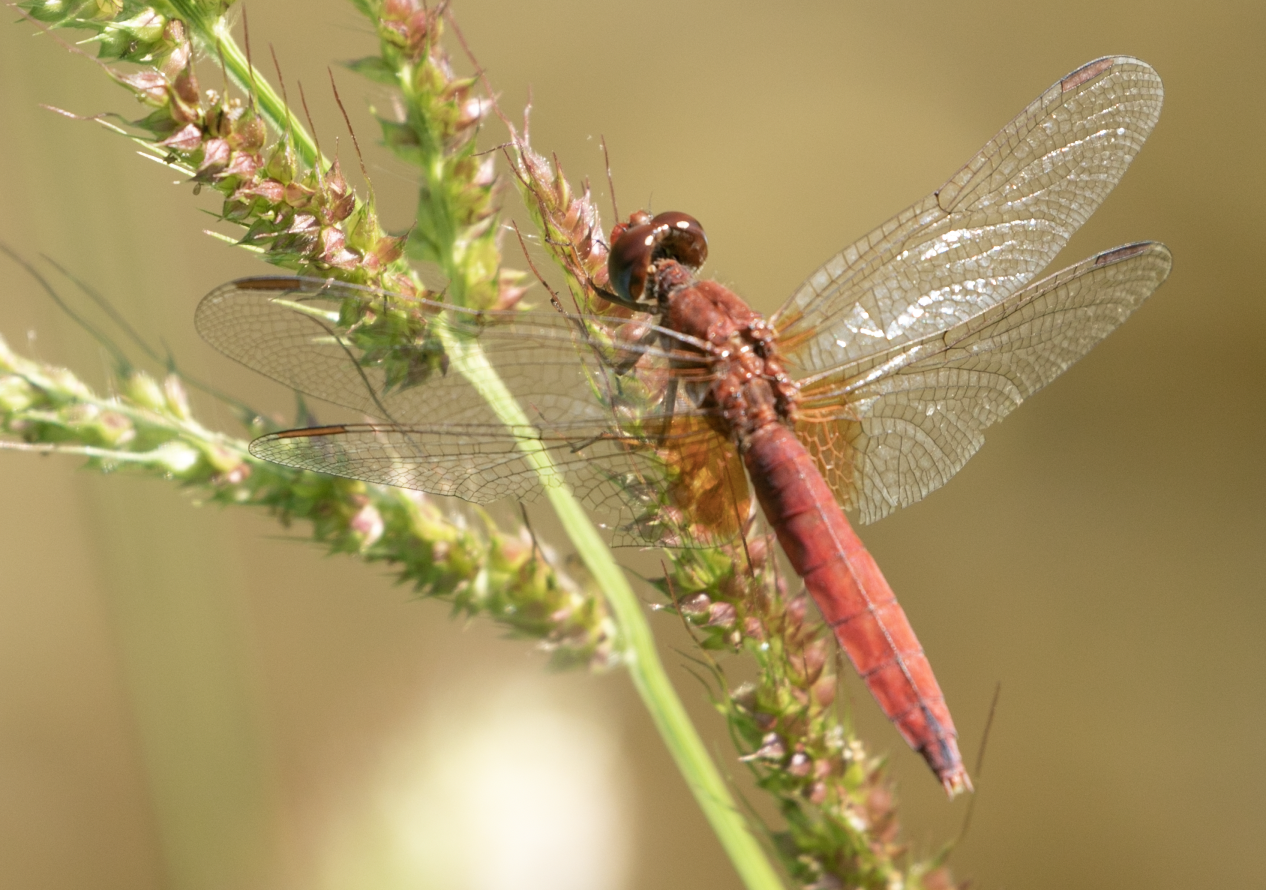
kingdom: Animalia
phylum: Arthropoda
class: Insecta
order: Odonata
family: Libellulidae
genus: Crocothemis
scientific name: Crocothemis erythraea
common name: Scarlet dragonfly
